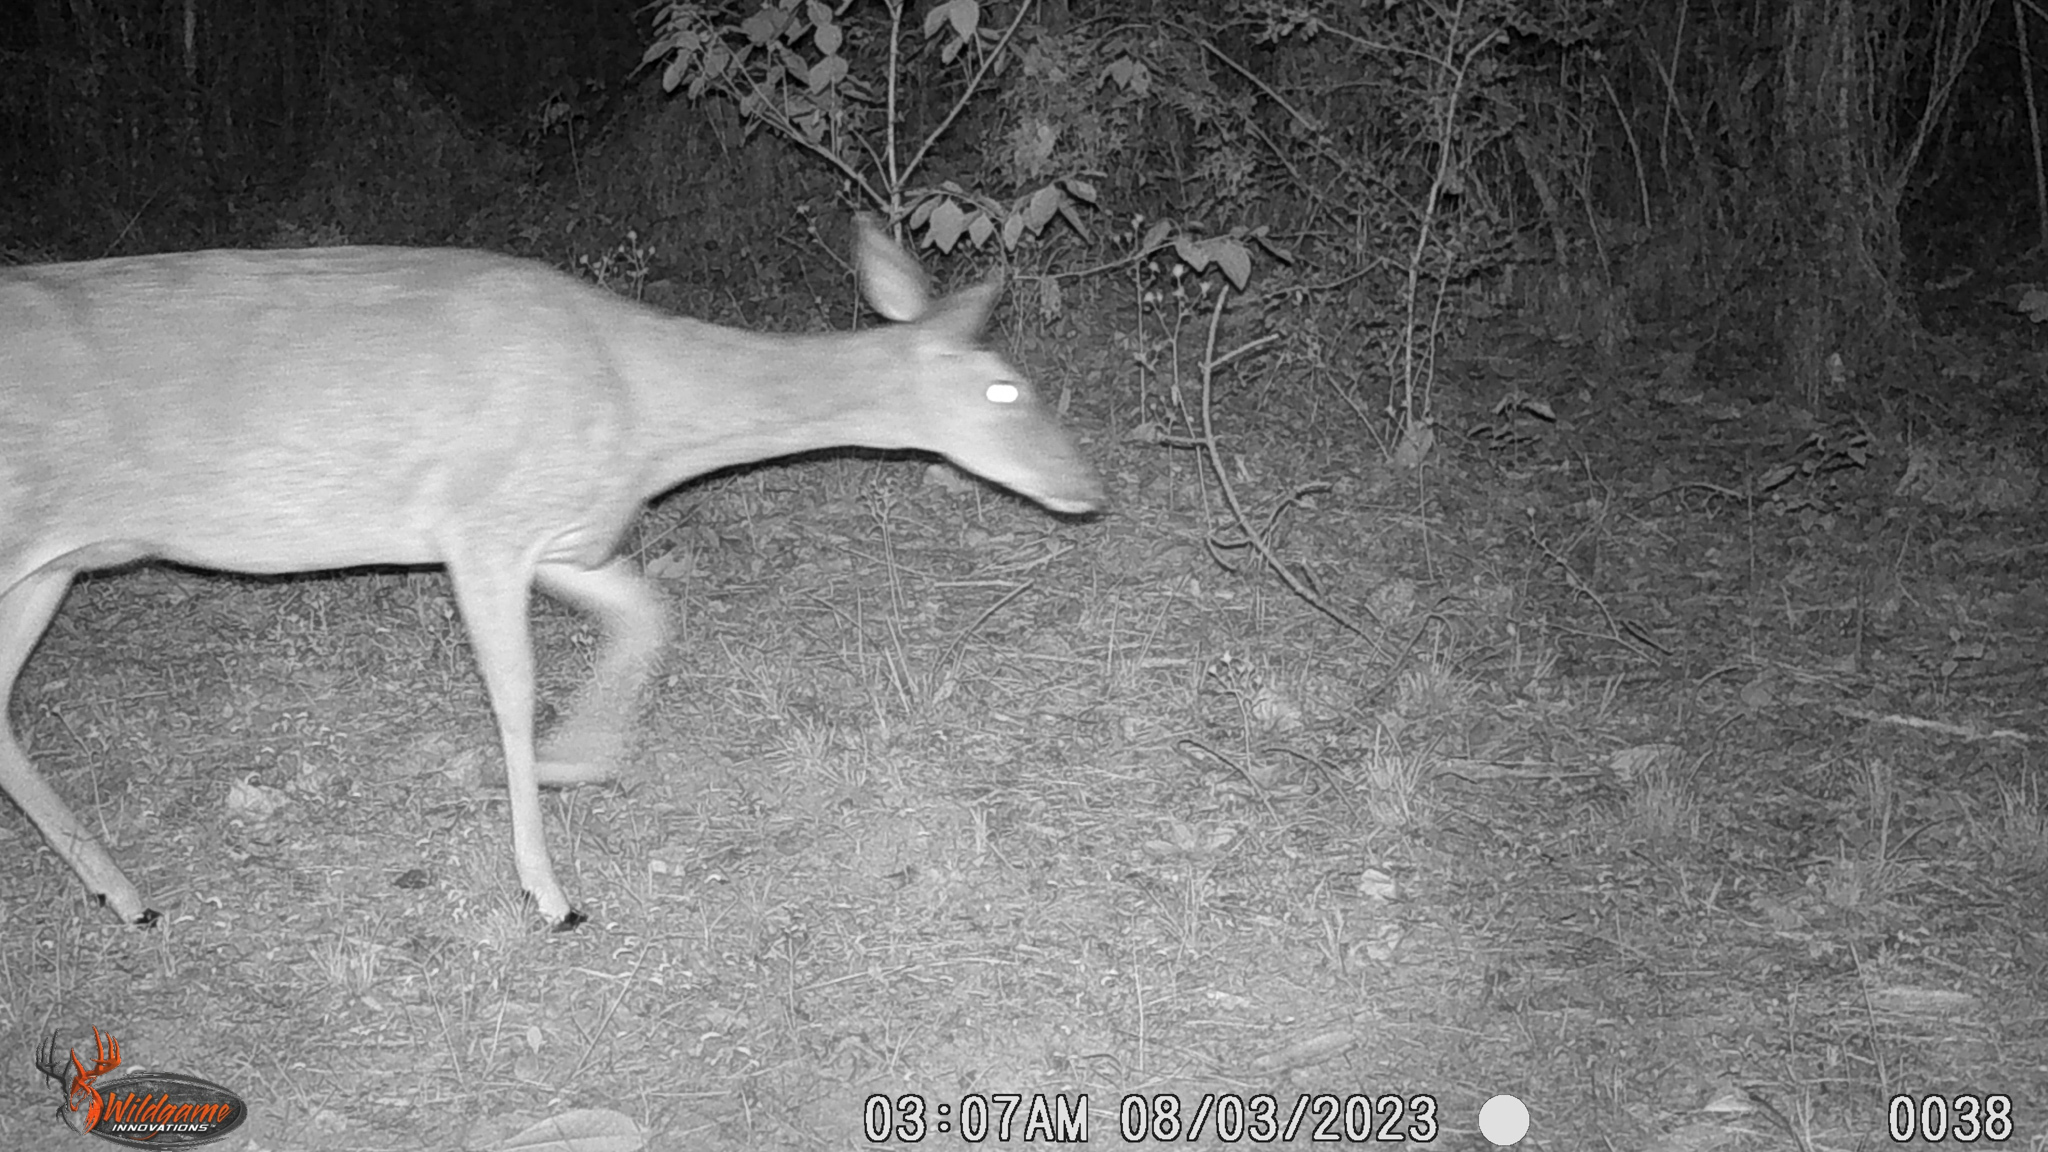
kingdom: Animalia
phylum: Chordata
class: Mammalia
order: Artiodactyla
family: Cervidae
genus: Odocoileus
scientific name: Odocoileus virginianus
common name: White-tailed deer
